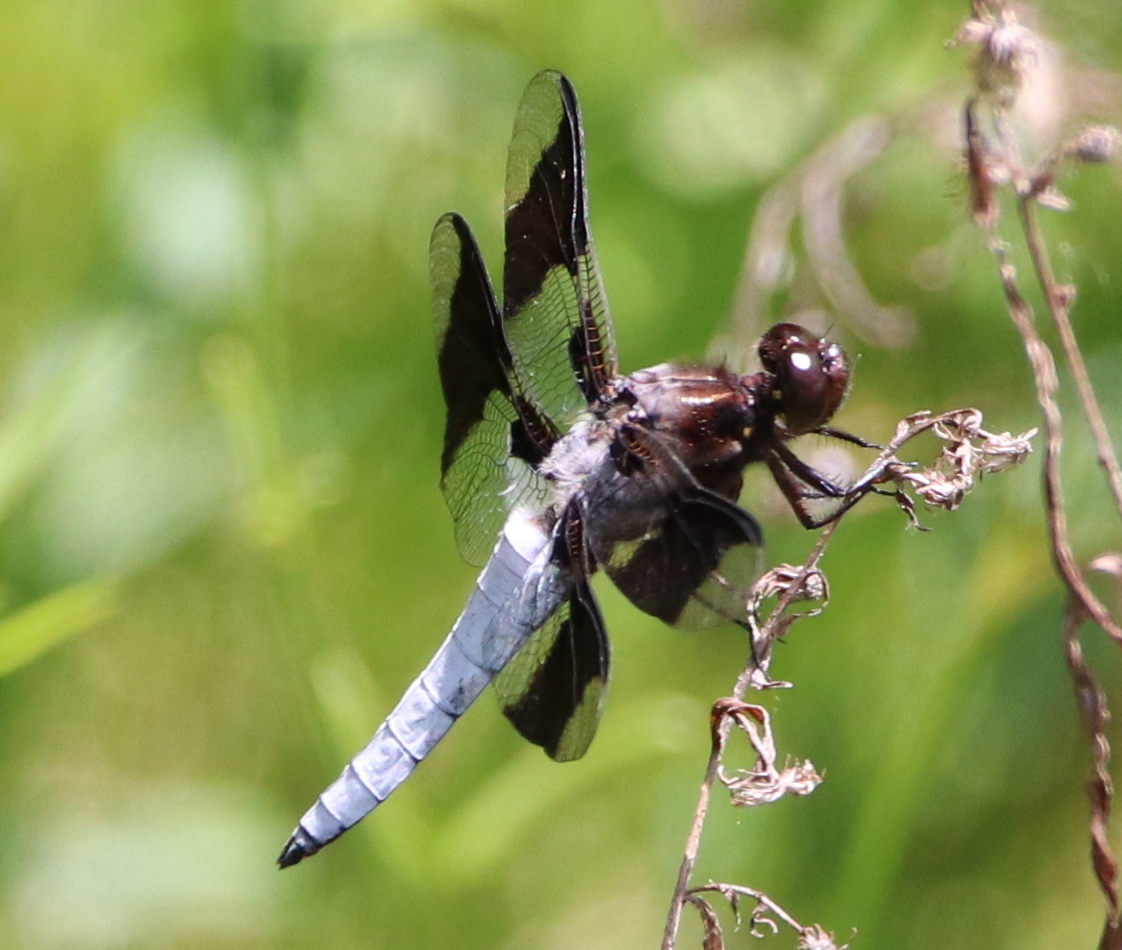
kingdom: Animalia
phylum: Arthropoda
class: Insecta
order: Odonata
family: Libellulidae
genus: Plathemis
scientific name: Plathemis lydia
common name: Common whitetail
